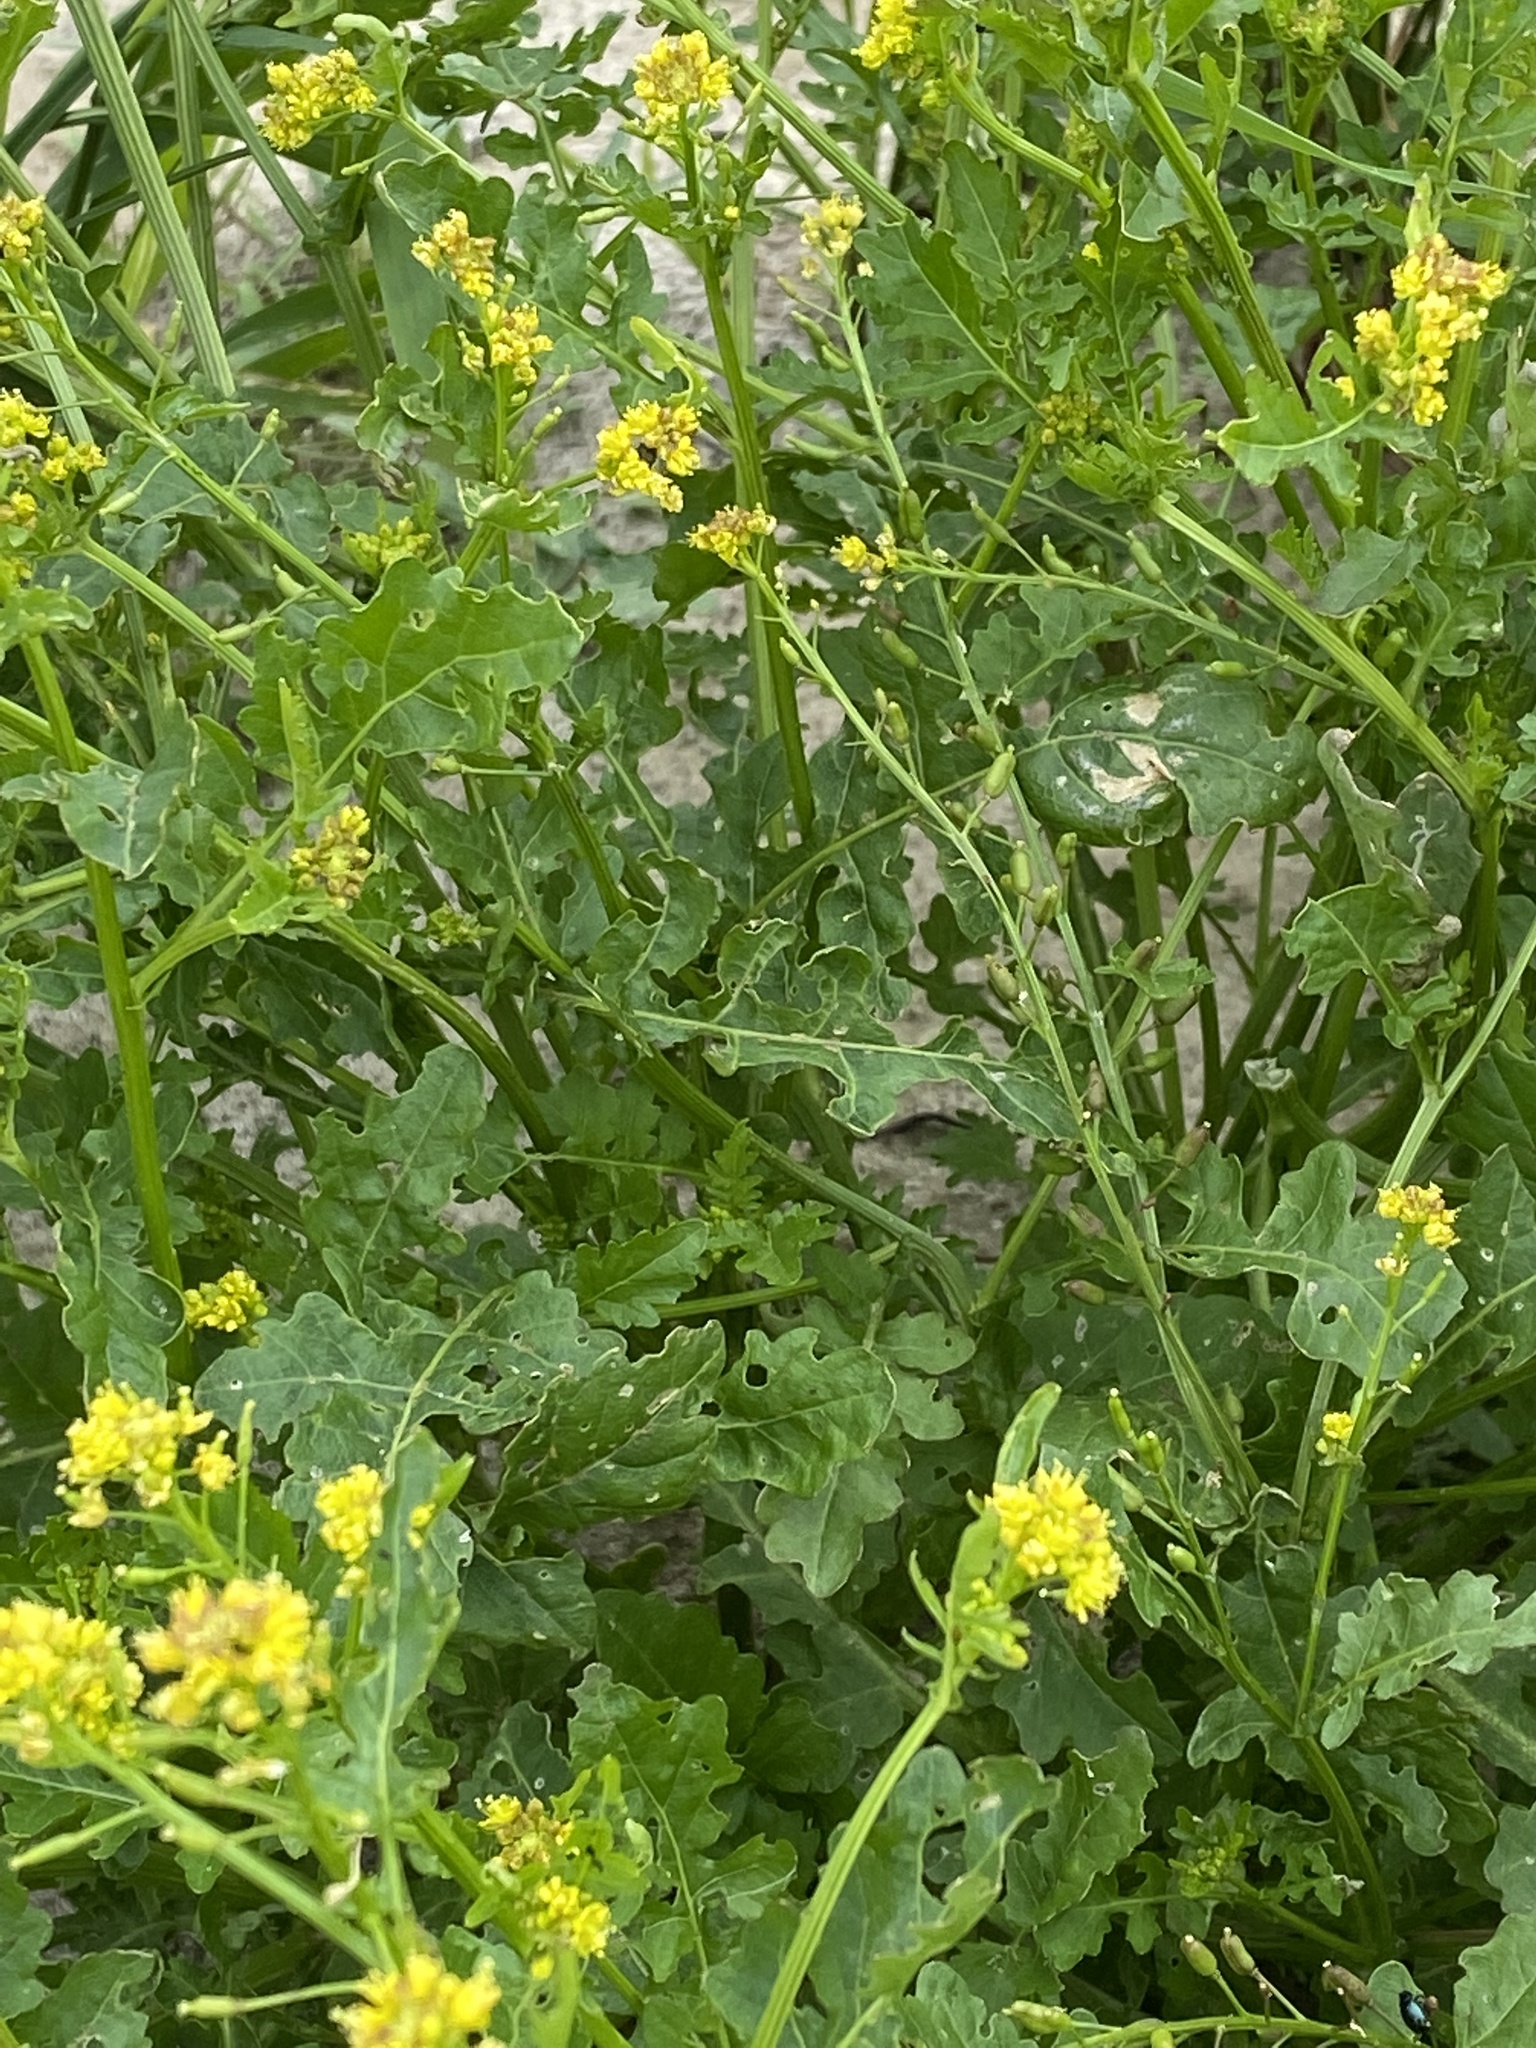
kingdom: Plantae
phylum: Tracheophyta
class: Magnoliopsida
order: Brassicales
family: Brassicaceae
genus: Rorippa
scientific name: Rorippa palustris
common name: Marsh yellow-cress
